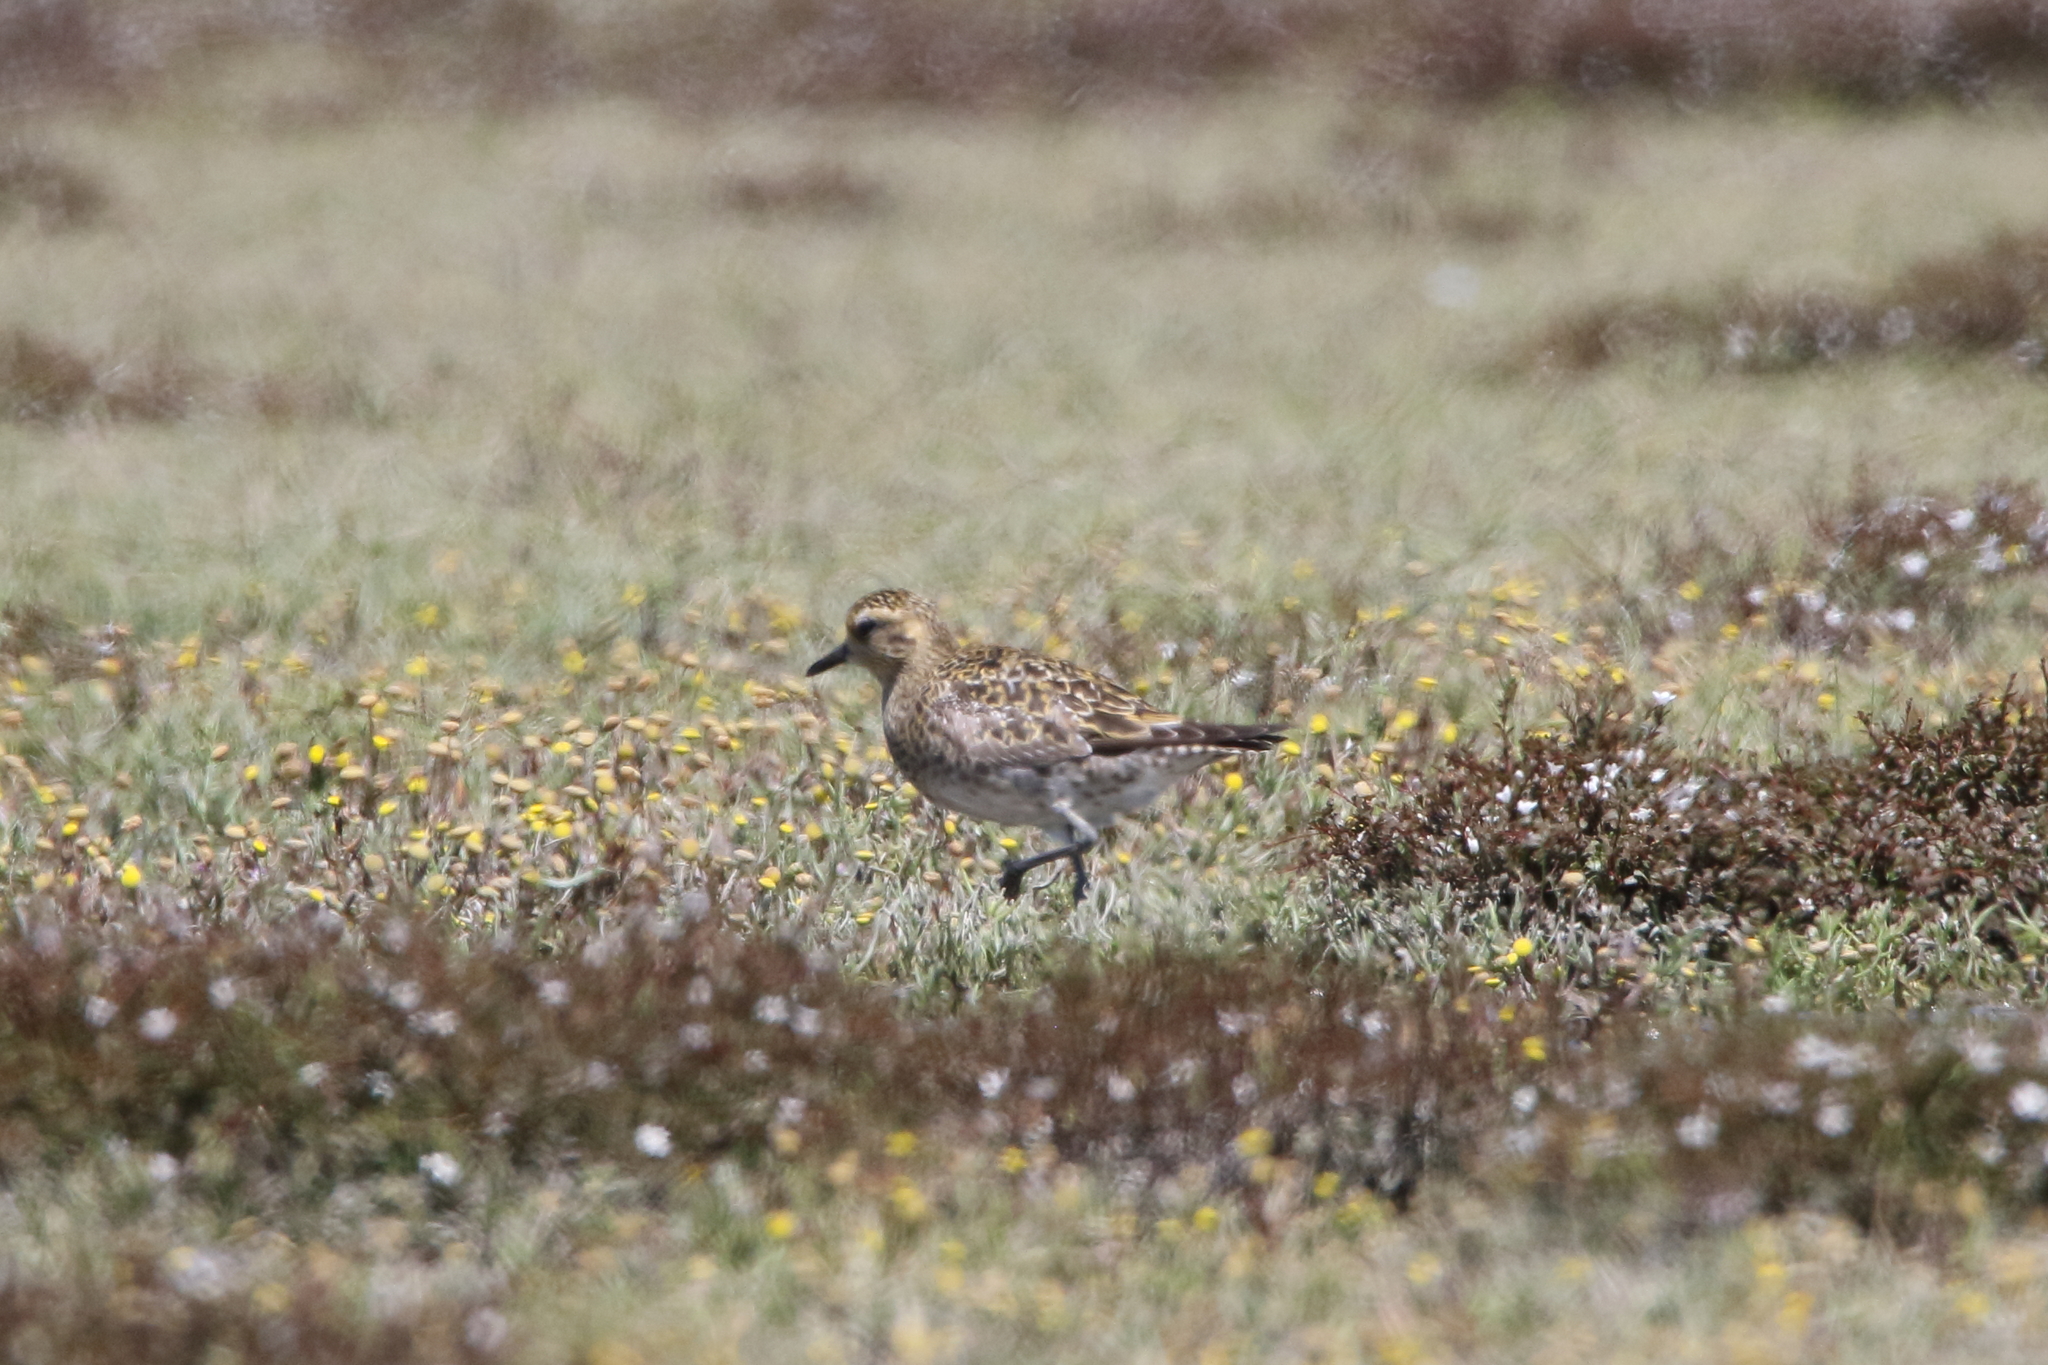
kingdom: Animalia
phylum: Chordata
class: Aves
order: Charadriiformes
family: Charadriidae
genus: Pluvialis
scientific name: Pluvialis fulva
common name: Pacific golden plover
